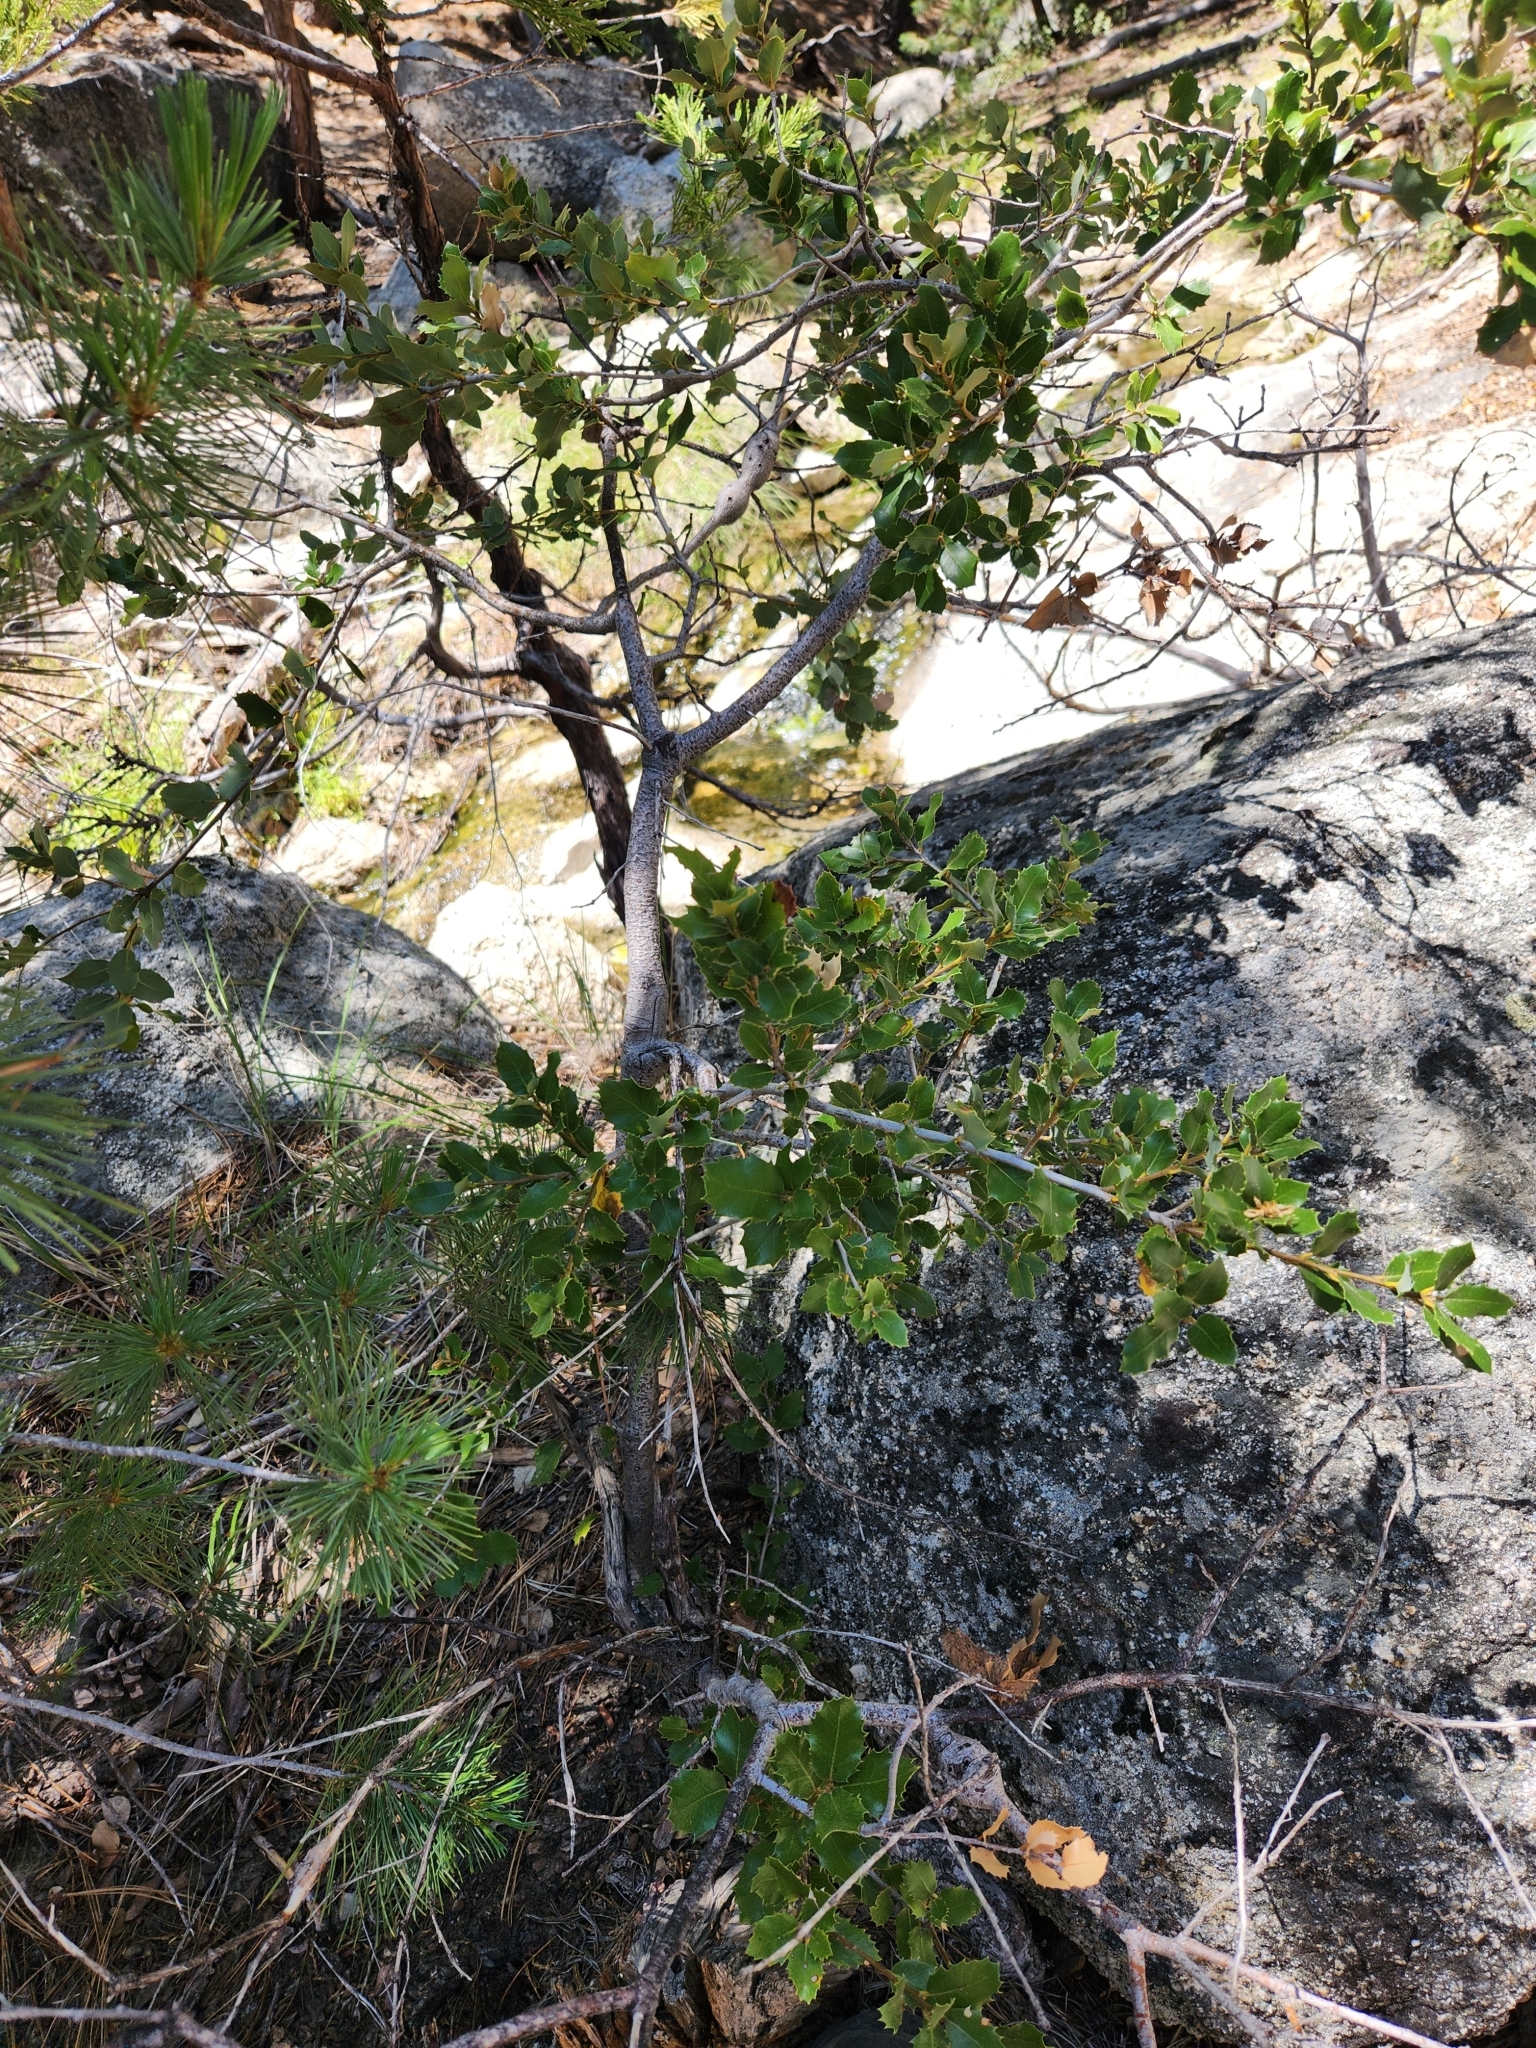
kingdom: Plantae
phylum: Tracheophyta
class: Magnoliopsida
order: Fagales
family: Fagaceae
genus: Quercus
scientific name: Quercus chrysolepis
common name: Canyon live oak
